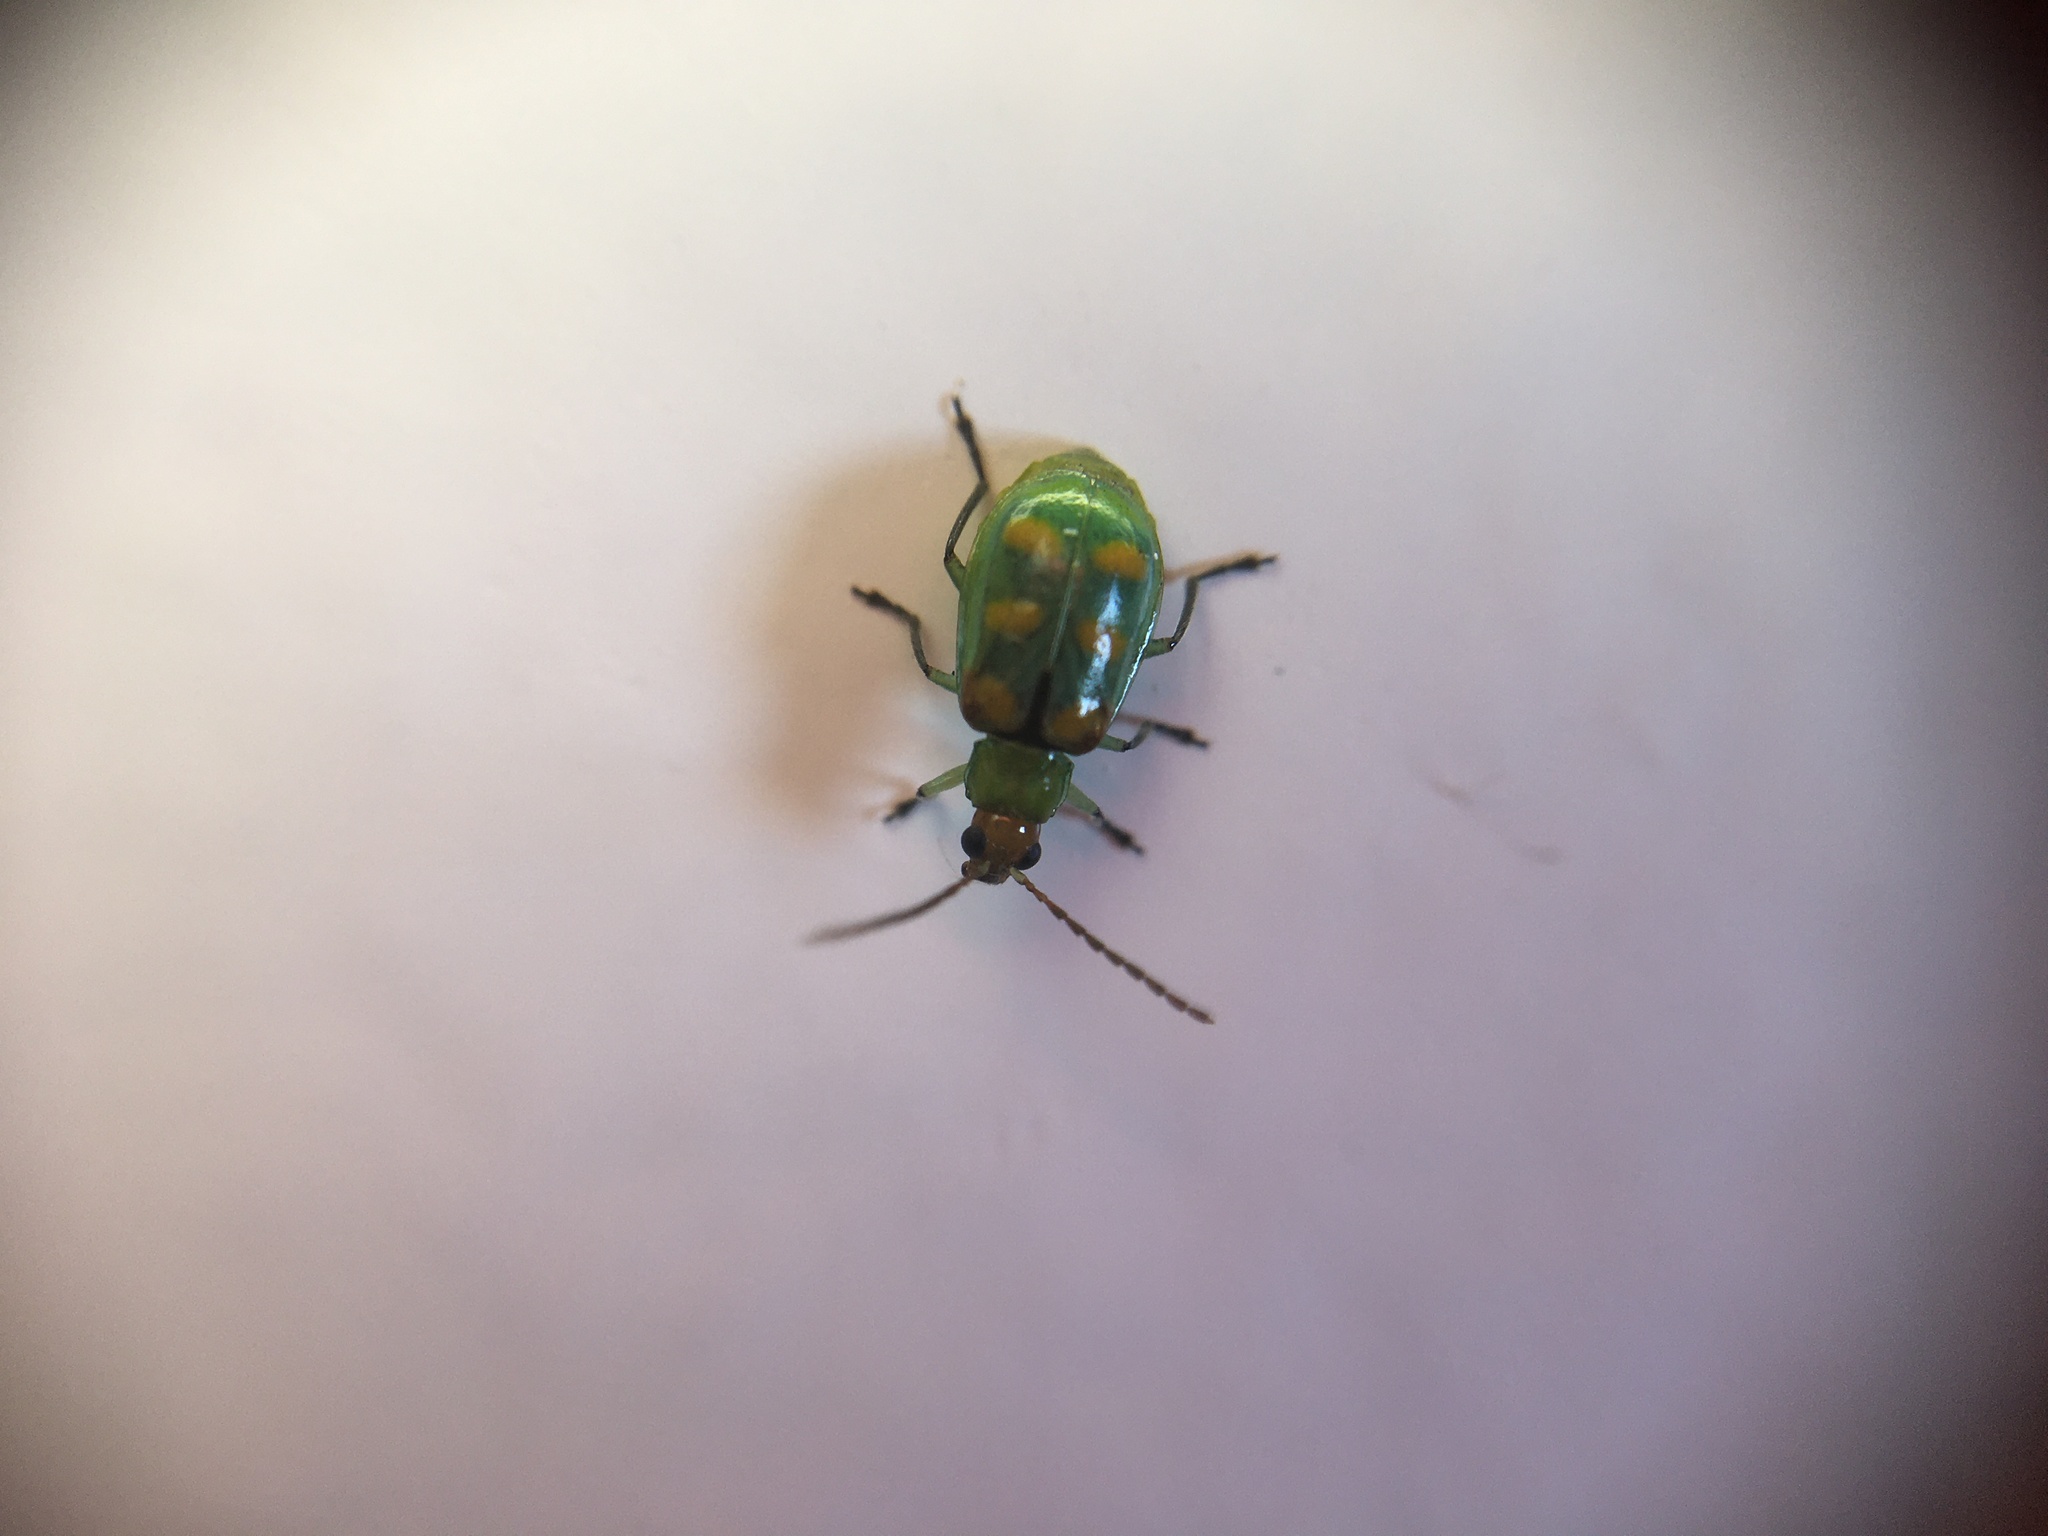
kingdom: Animalia
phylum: Arthropoda
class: Insecta
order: Coleoptera
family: Chrysomelidae
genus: Diabrotica
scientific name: Diabrotica speciosa
